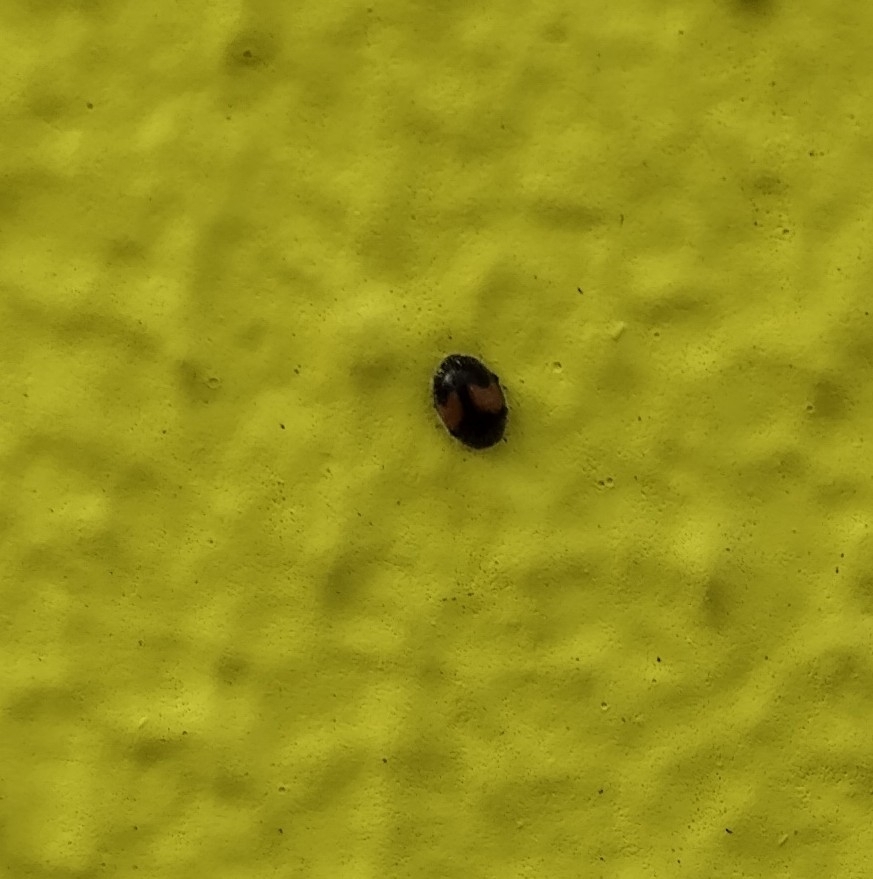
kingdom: Animalia
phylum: Arthropoda
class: Insecta
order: Coleoptera
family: Coccinellidae
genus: Scymnus
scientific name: Scymnus notescens
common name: Minute two-spotted ladybird beetle
